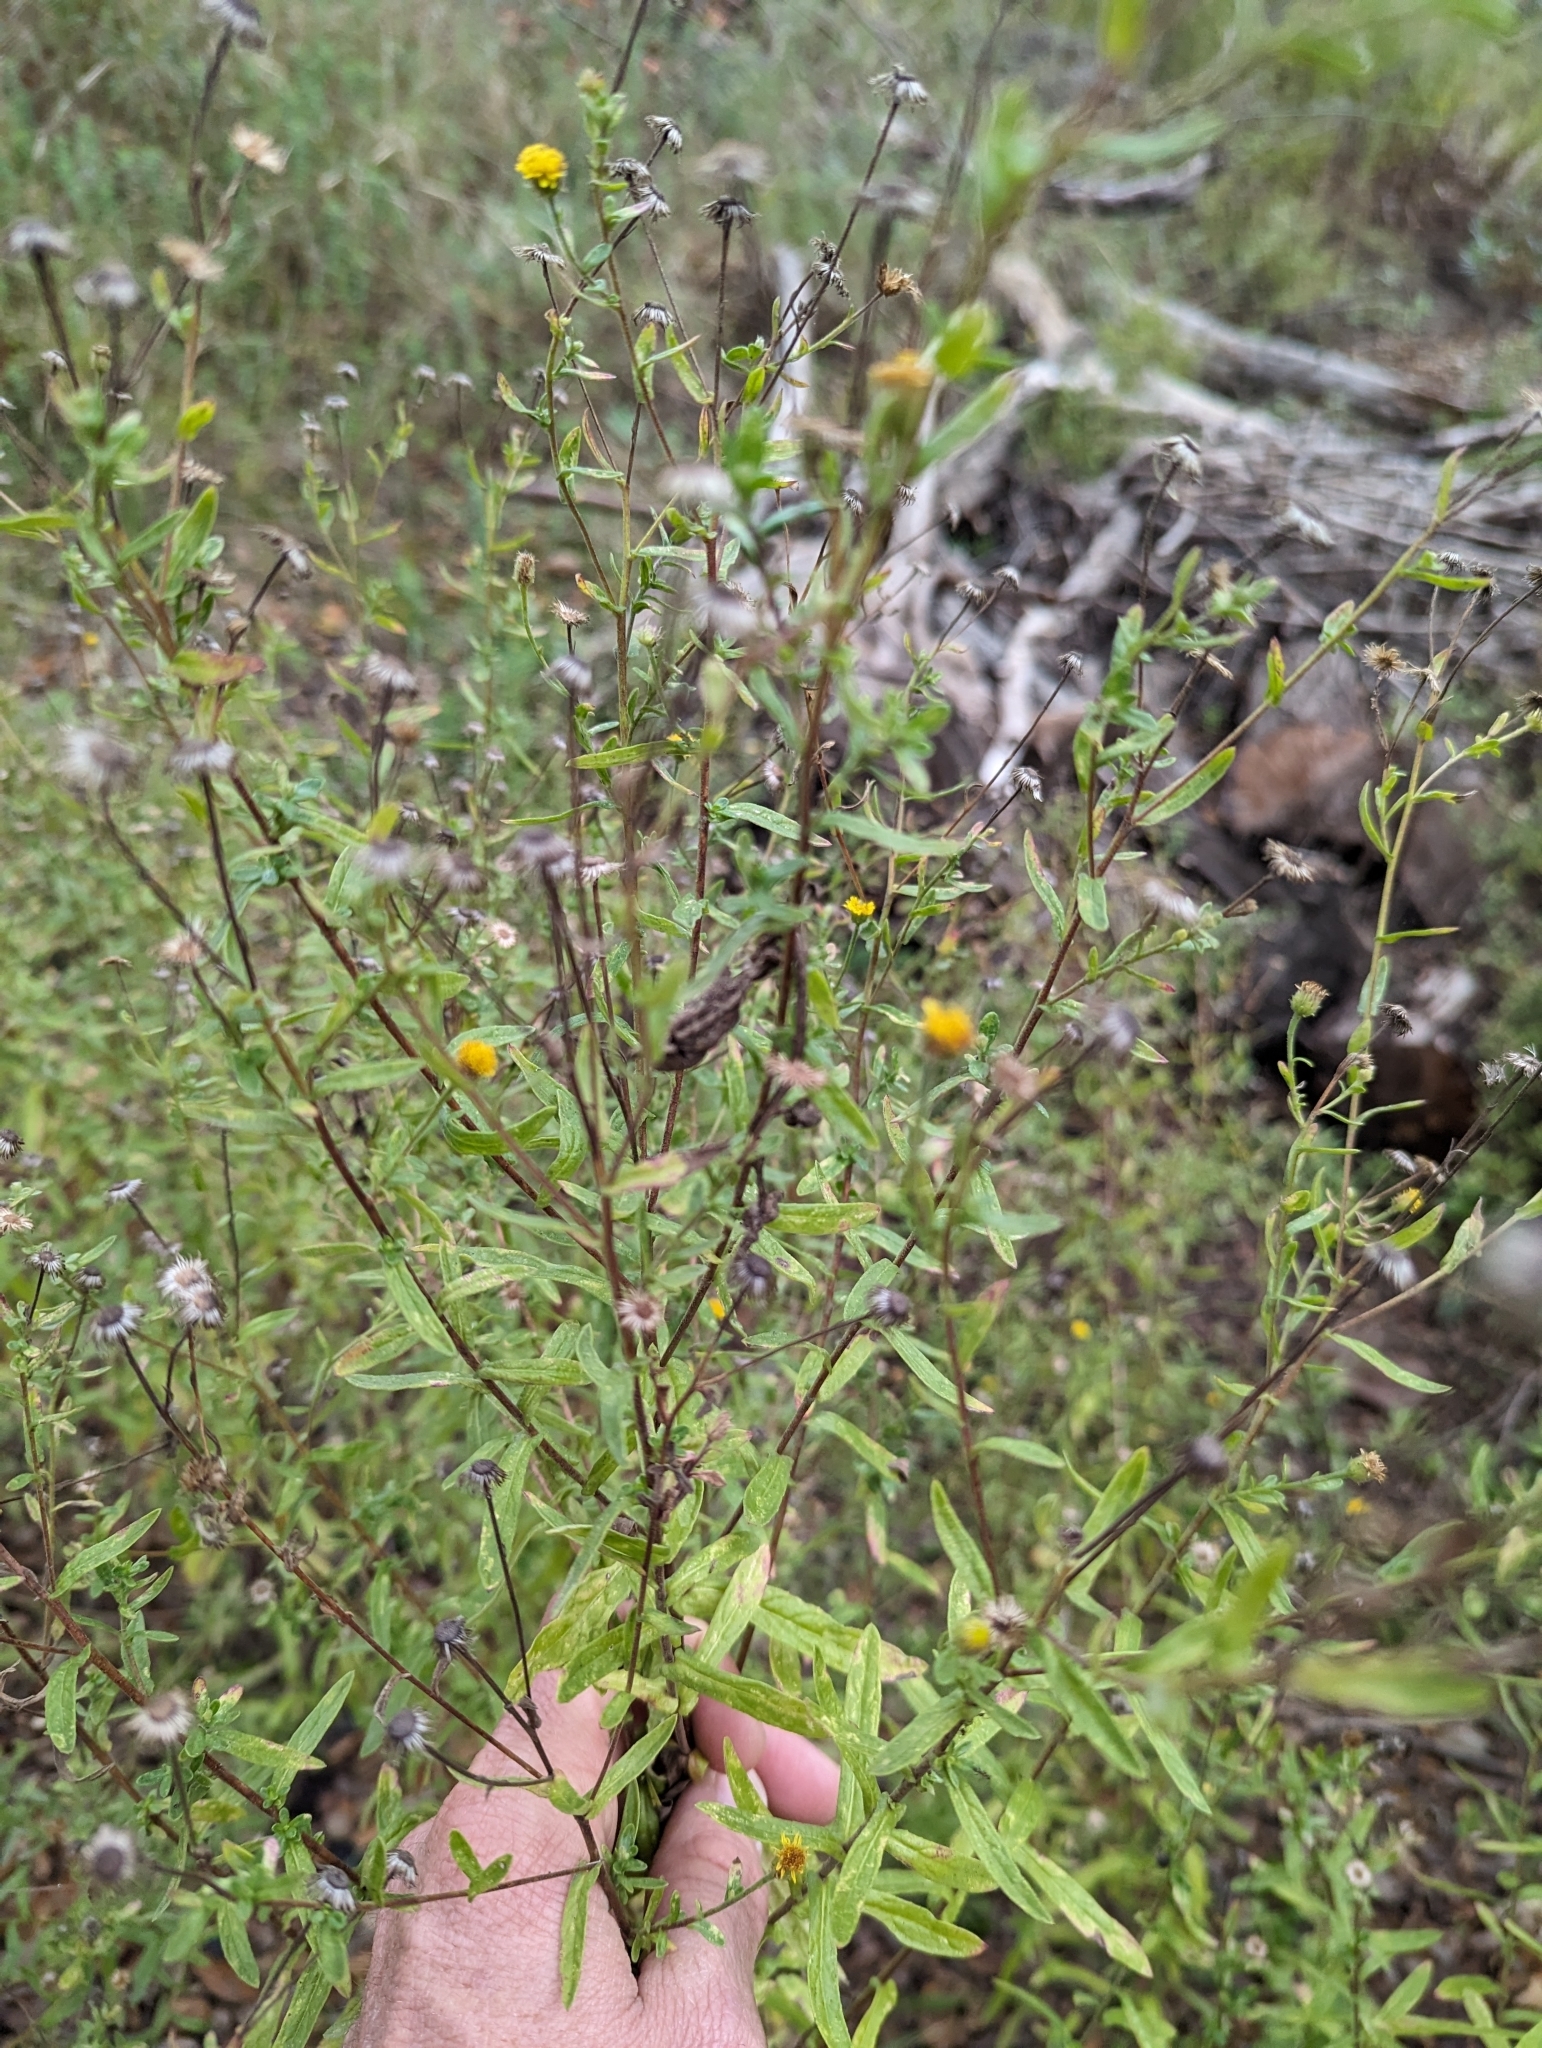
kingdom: Plantae
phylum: Tracheophyta
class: Magnoliopsida
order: Asterales
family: Asteraceae
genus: Pulicaria
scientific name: Pulicaria paludosa
